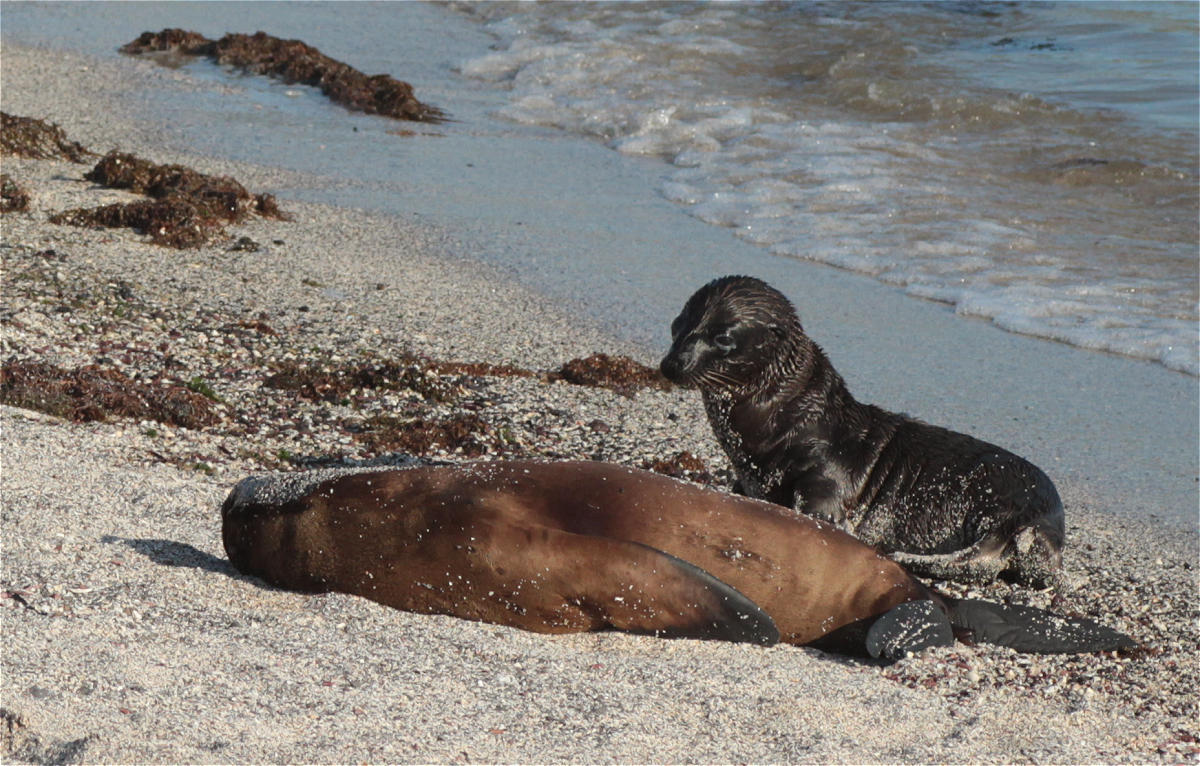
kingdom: Animalia
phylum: Chordata
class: Mammalia
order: Carnivora
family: Otariidae
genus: Zalophus
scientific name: Zalophus wollebaeki
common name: Galapagos sea lion
